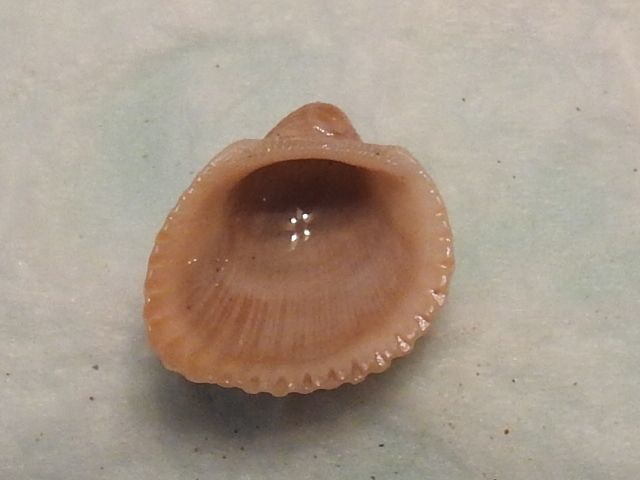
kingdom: Animalia
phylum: Mollusca
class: Bivalvia
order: Arcida
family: Arcidae
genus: Anadara
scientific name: Anadara chemnitzii
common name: Chemnitz's triangular ark
